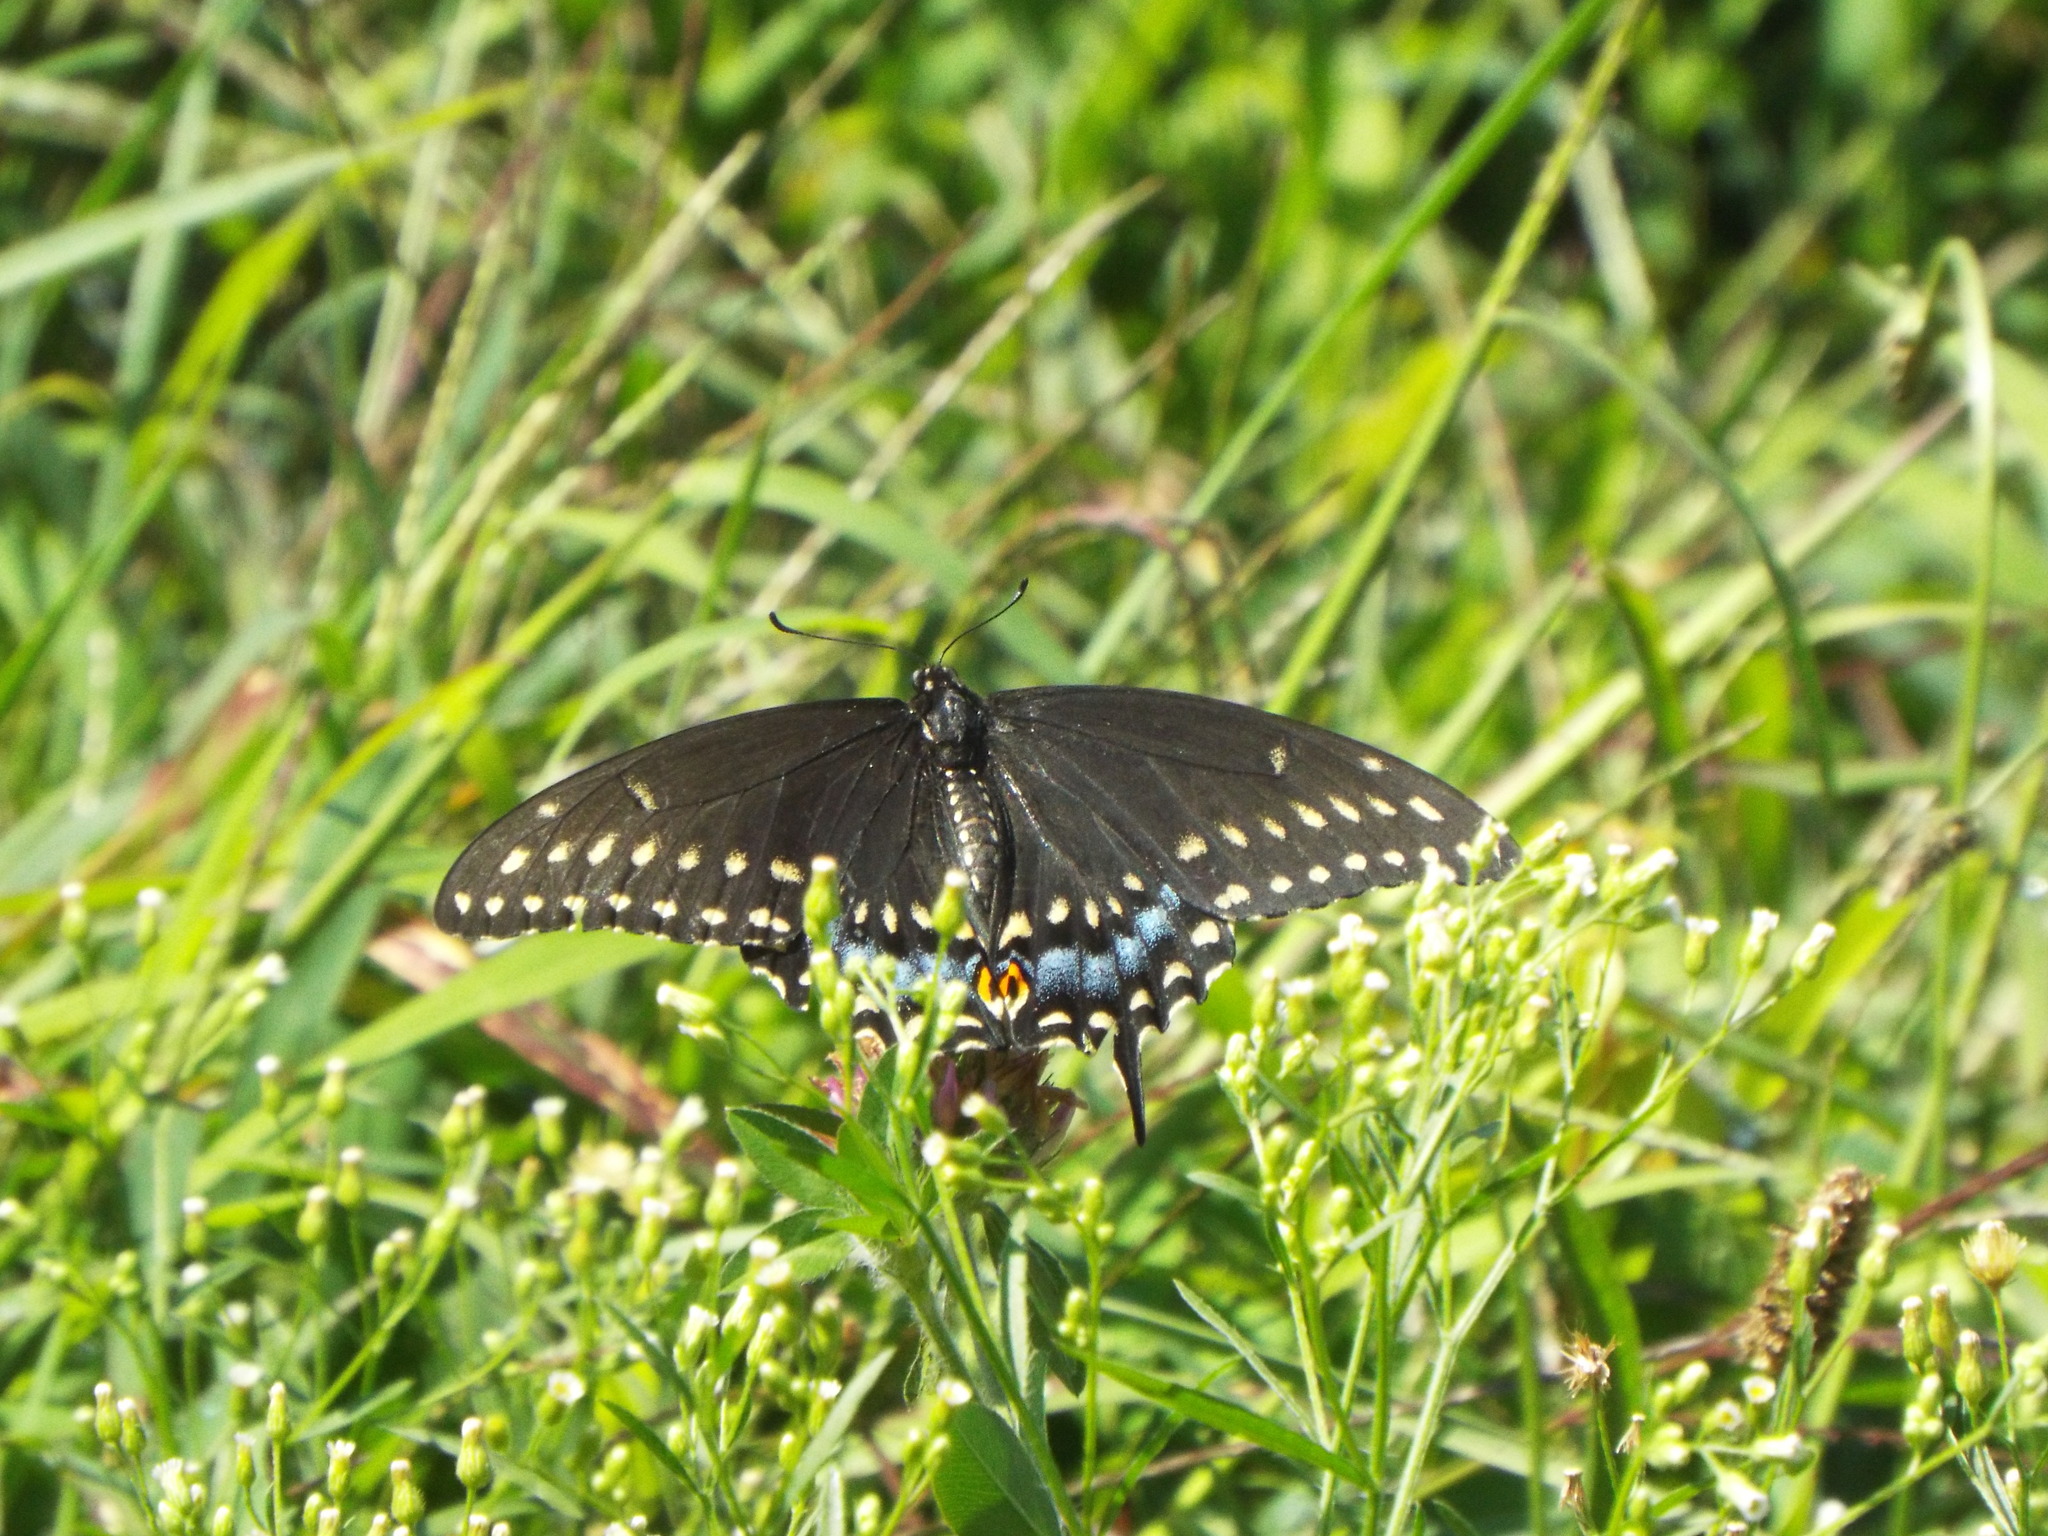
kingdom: Animalia
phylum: Arthropoda
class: Insecta
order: Lepidoptera
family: Papilionidae
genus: Papilio
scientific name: Papilio polyxenes
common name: Black swallowtail
